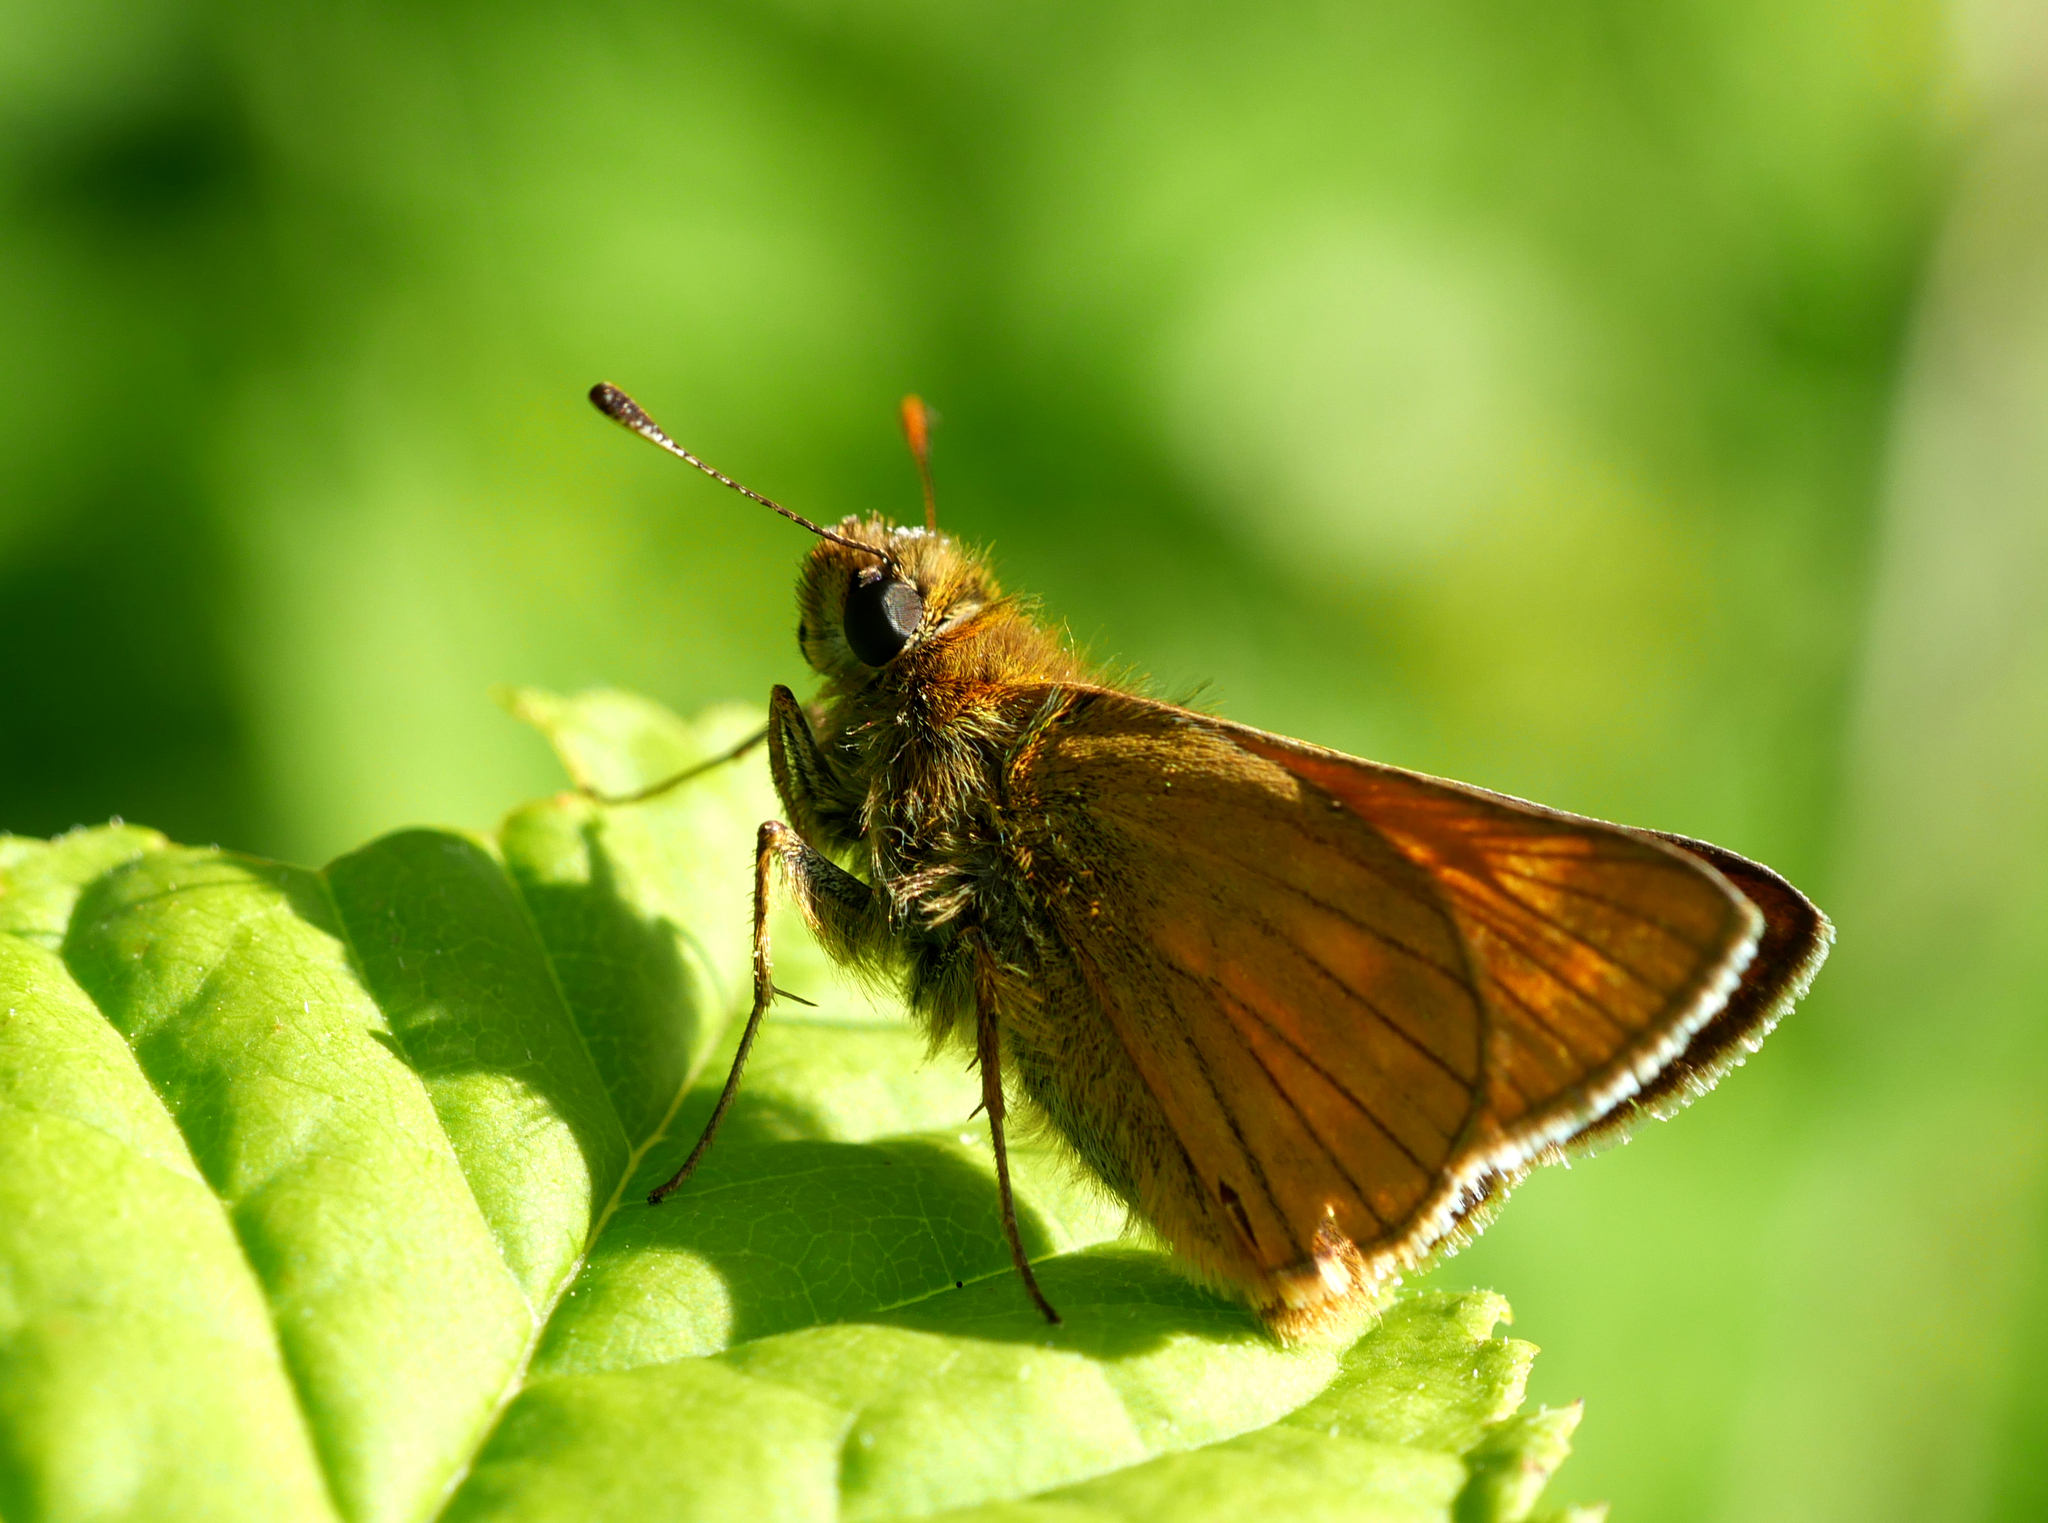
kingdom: Animalia
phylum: Arthropoda
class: Insecta
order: Lepidoptera
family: Hesperiidae
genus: Ochlodes
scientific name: Ochlodes venata
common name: Large skipper
